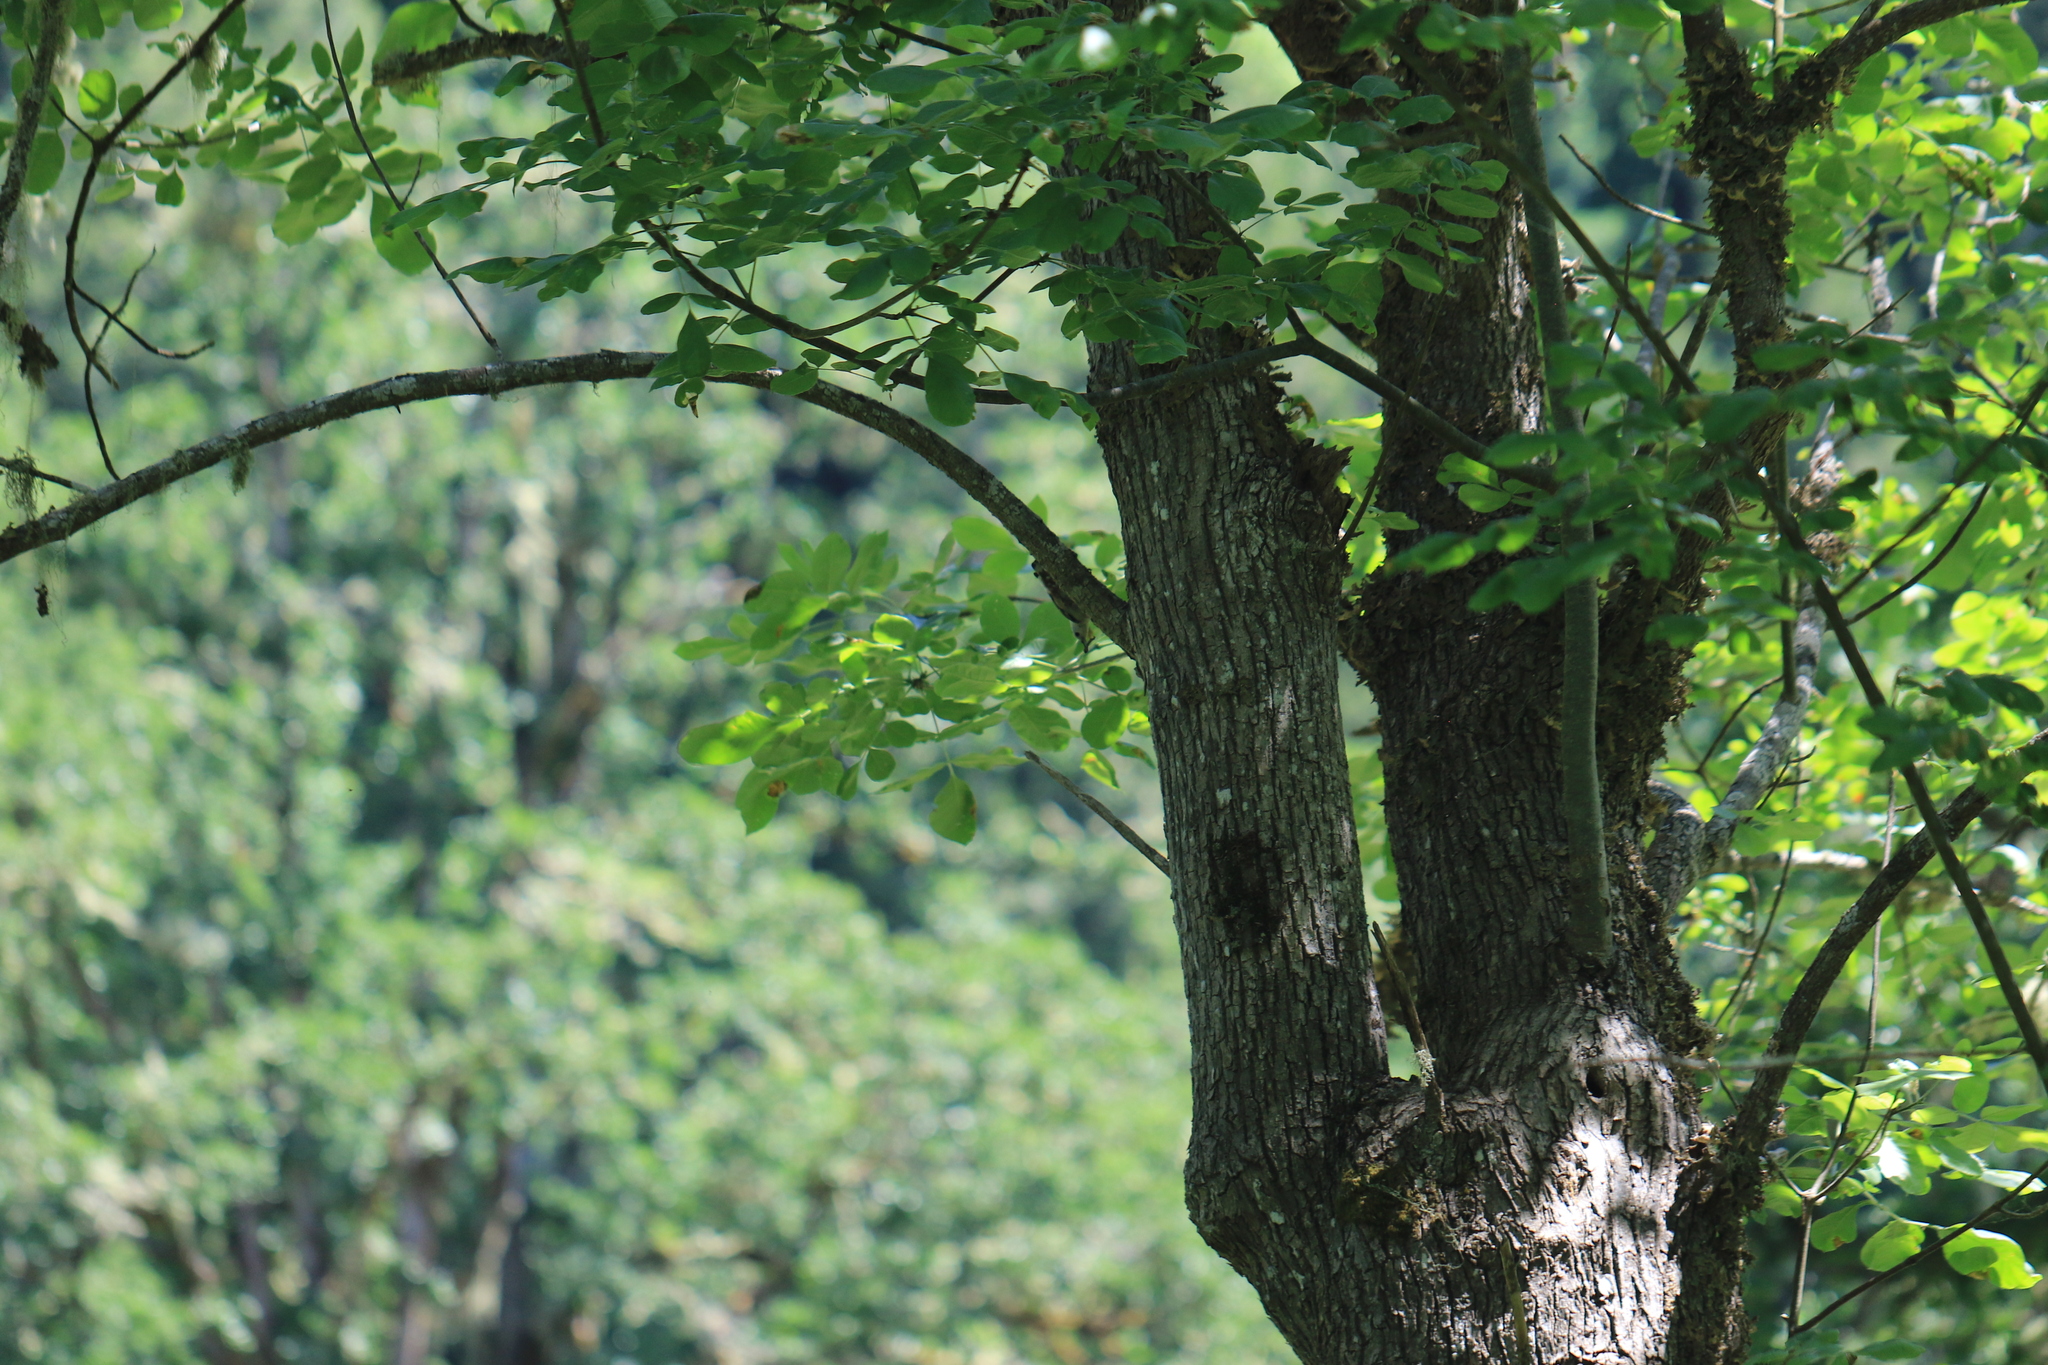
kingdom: Animalia
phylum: Chordata
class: Aves
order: Passeriformes
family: Sittidae
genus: Sitta
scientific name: Sitta carolinensis
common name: White-breasted nuthatch
